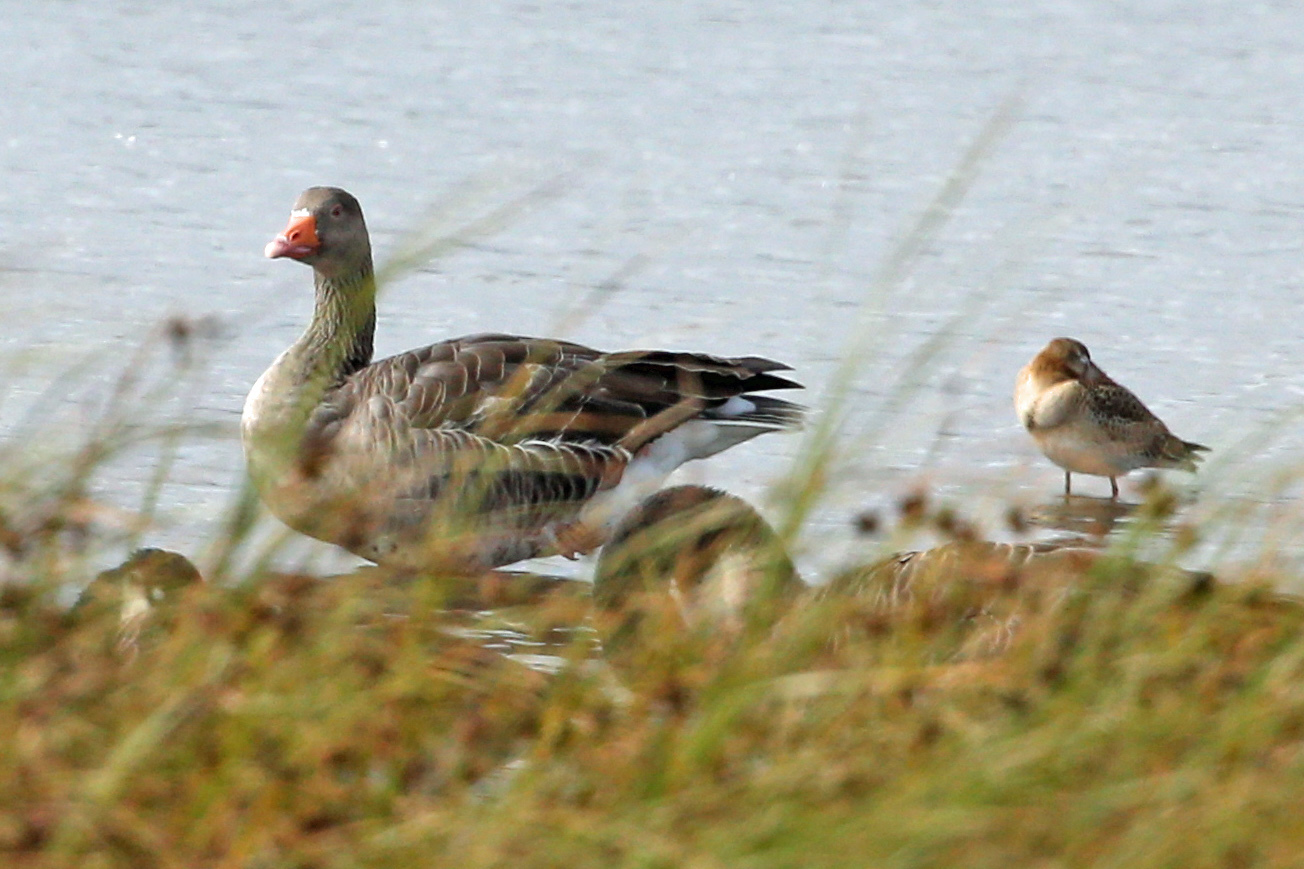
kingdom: Animalia
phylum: Chordata
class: Aves
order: Anseriformes
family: Anatidae
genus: Anser
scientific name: Anser anser
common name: Greylag goose
